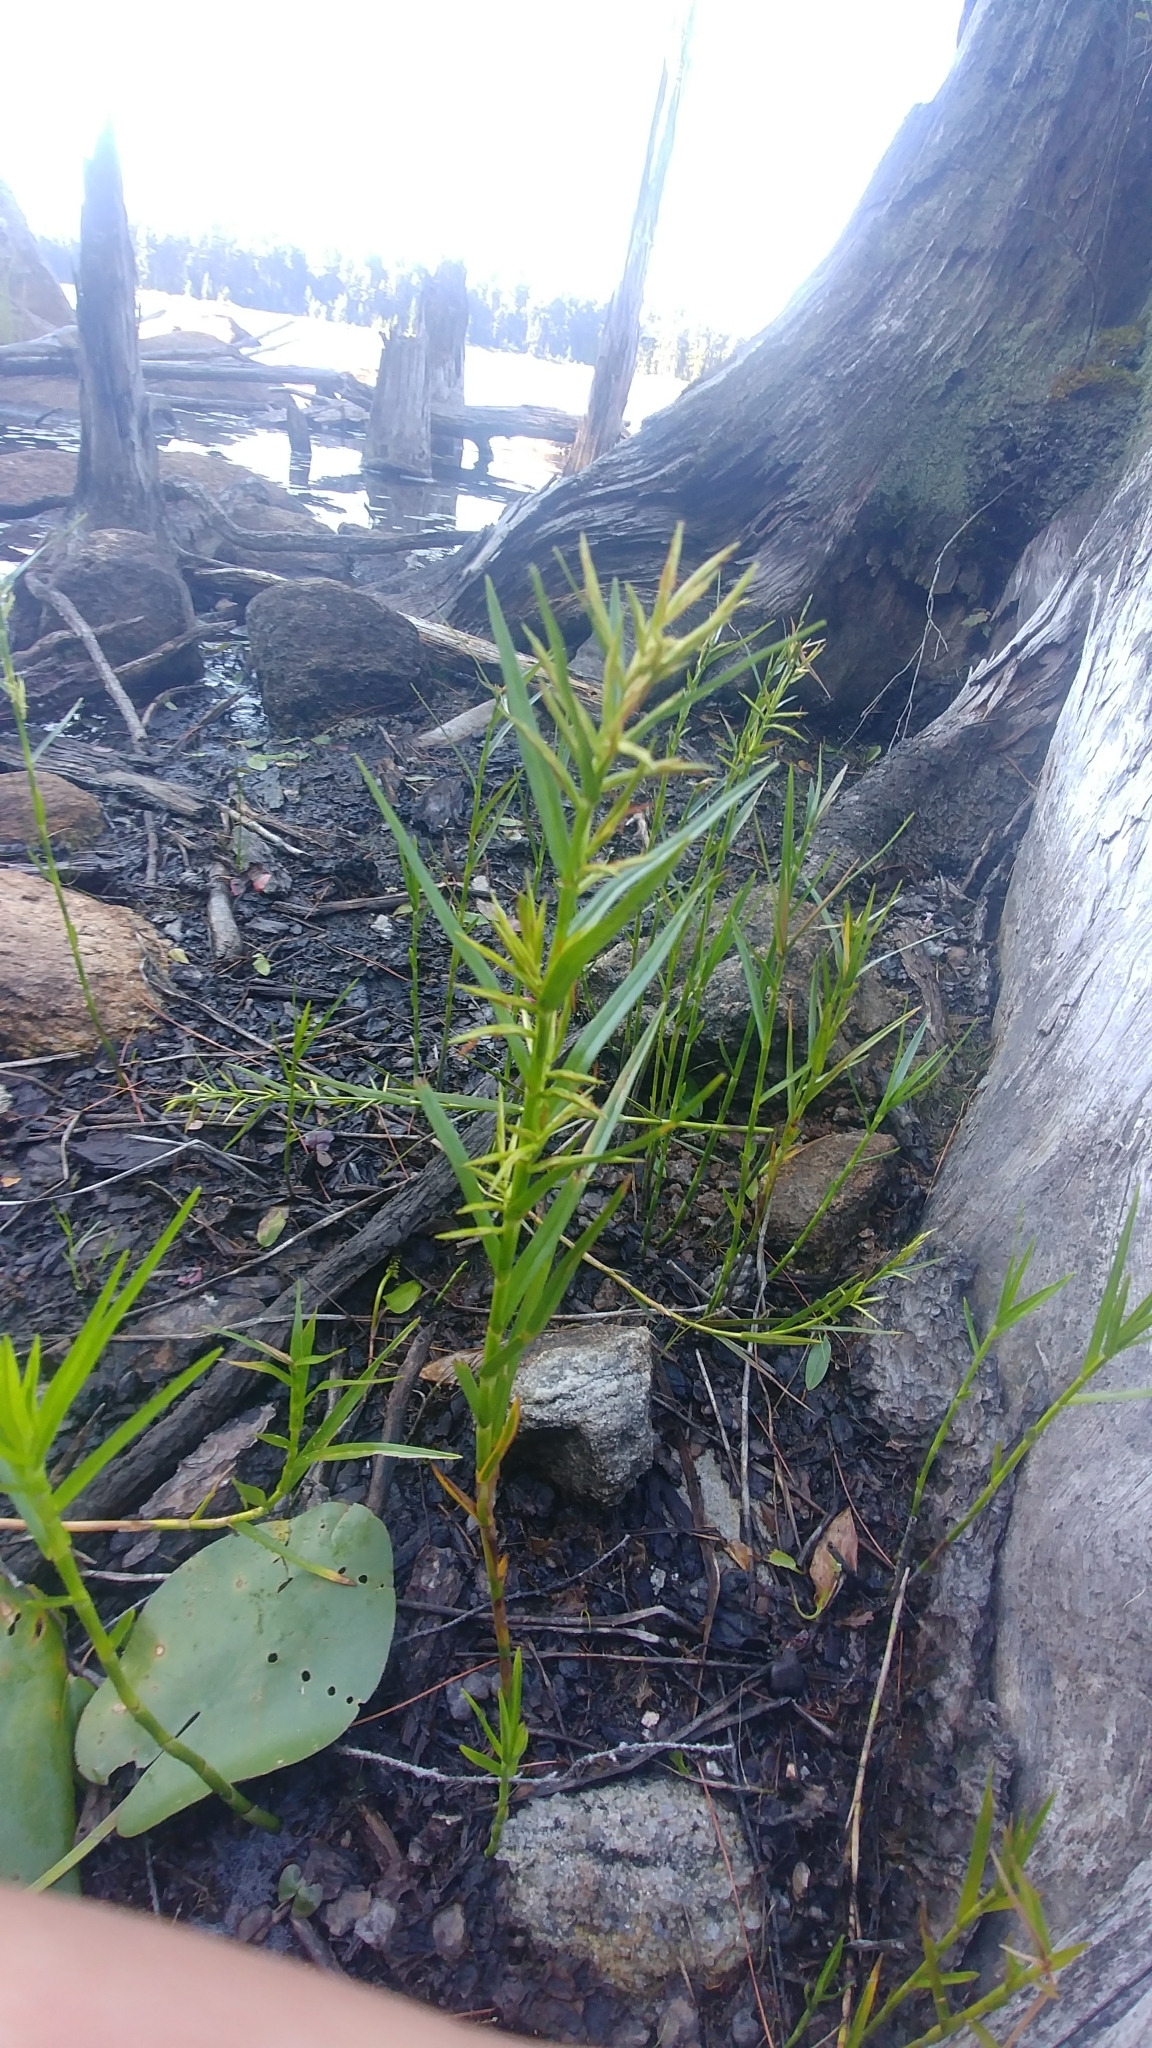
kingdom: Plantae
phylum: Tracheophyta
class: Liliopsida
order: Poales
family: Cyperaceae
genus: Dulichium
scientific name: Dulichium arundinaceum
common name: Three-way sedge
